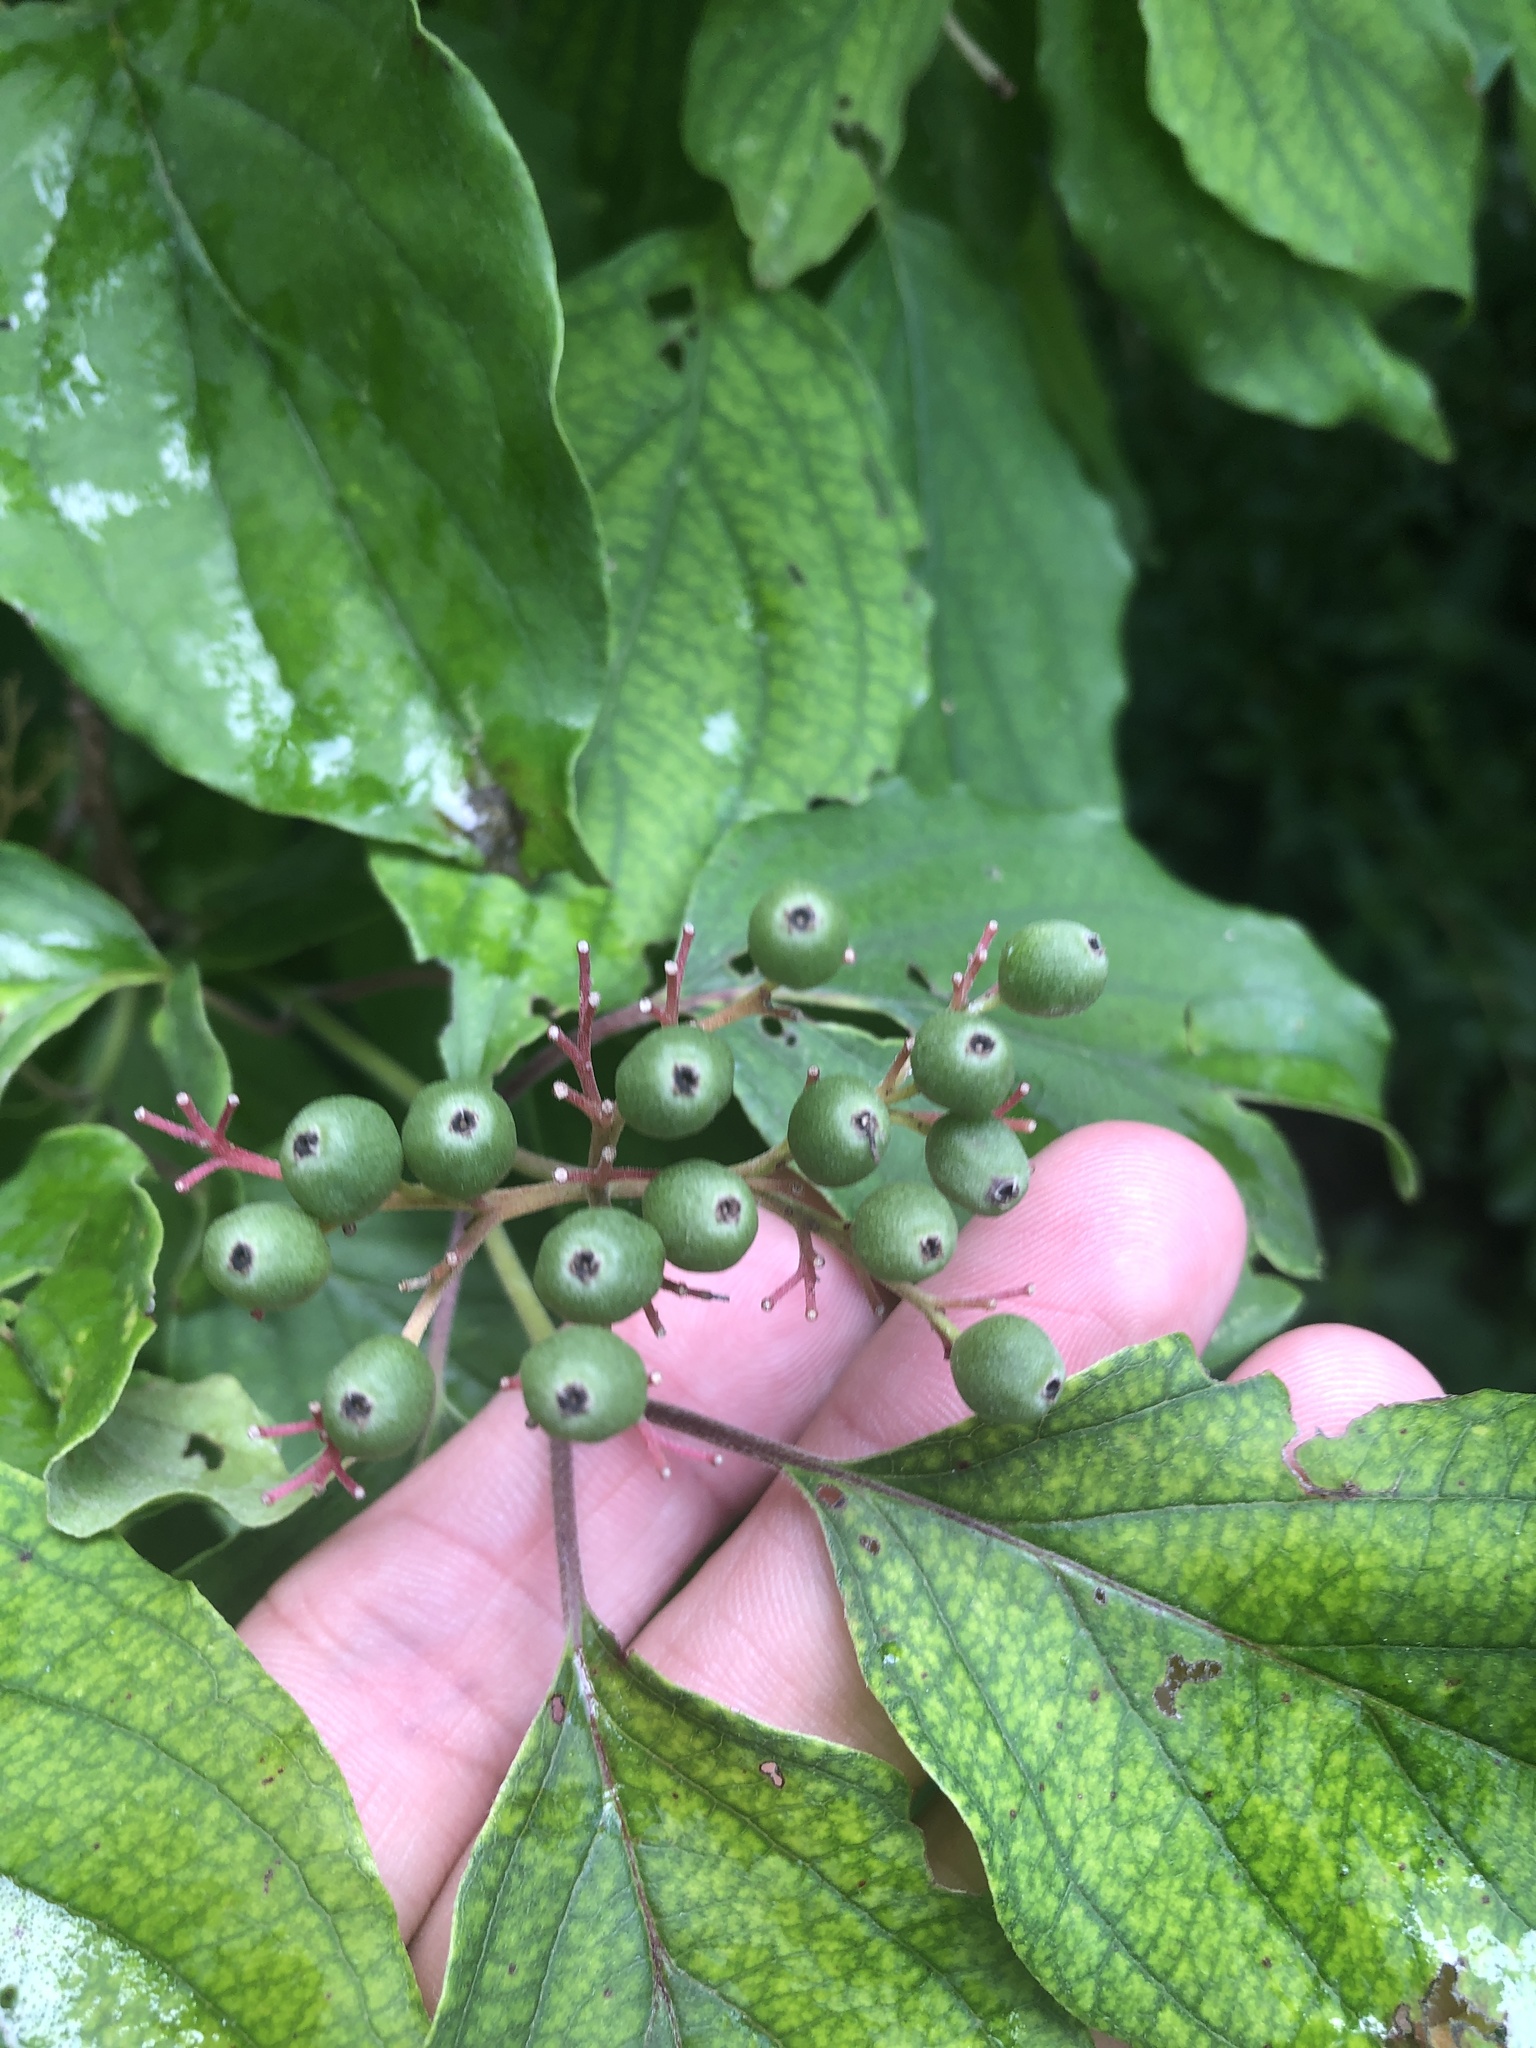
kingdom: Plantae
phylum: Tracheophyta
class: Magnoliopsida
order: Cornales
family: Cornaceae
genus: Cornus
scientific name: Cornus drummondii
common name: Rough-leaf dogwood
